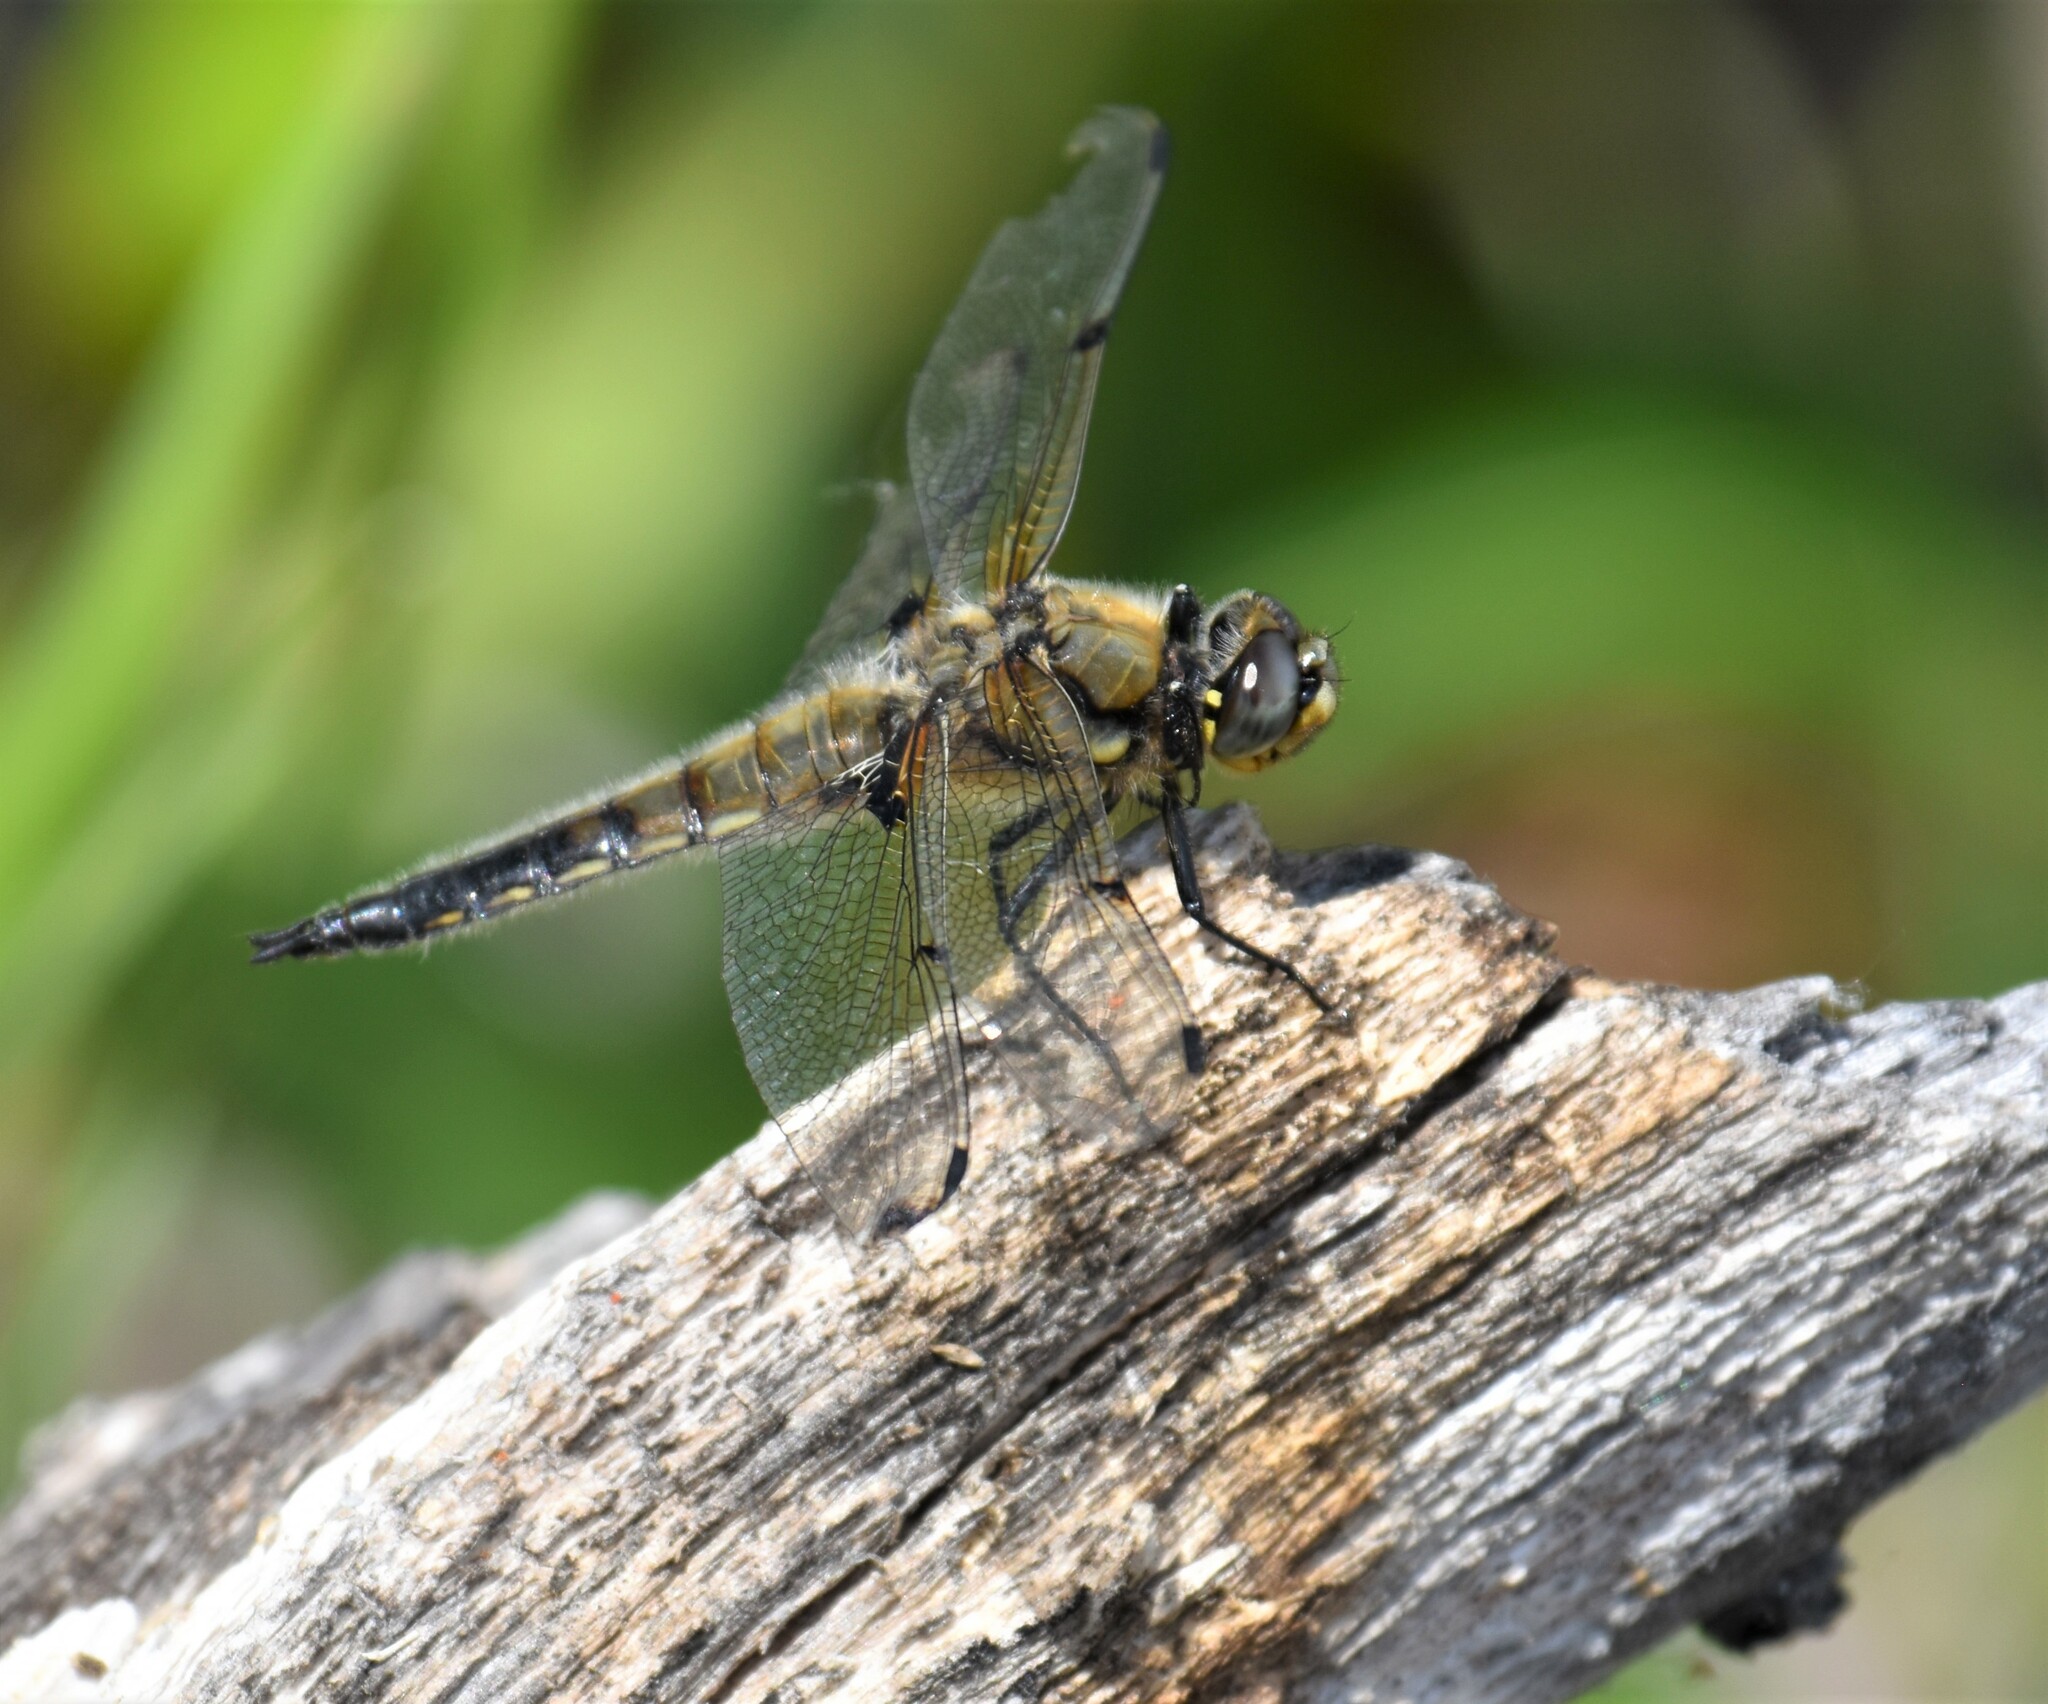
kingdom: Animalia
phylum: Arthropoda
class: Insecta
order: Odonata
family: Libellulidae
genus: Libellula
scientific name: Libellula quadrimaculata
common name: Four-spotted chaser
